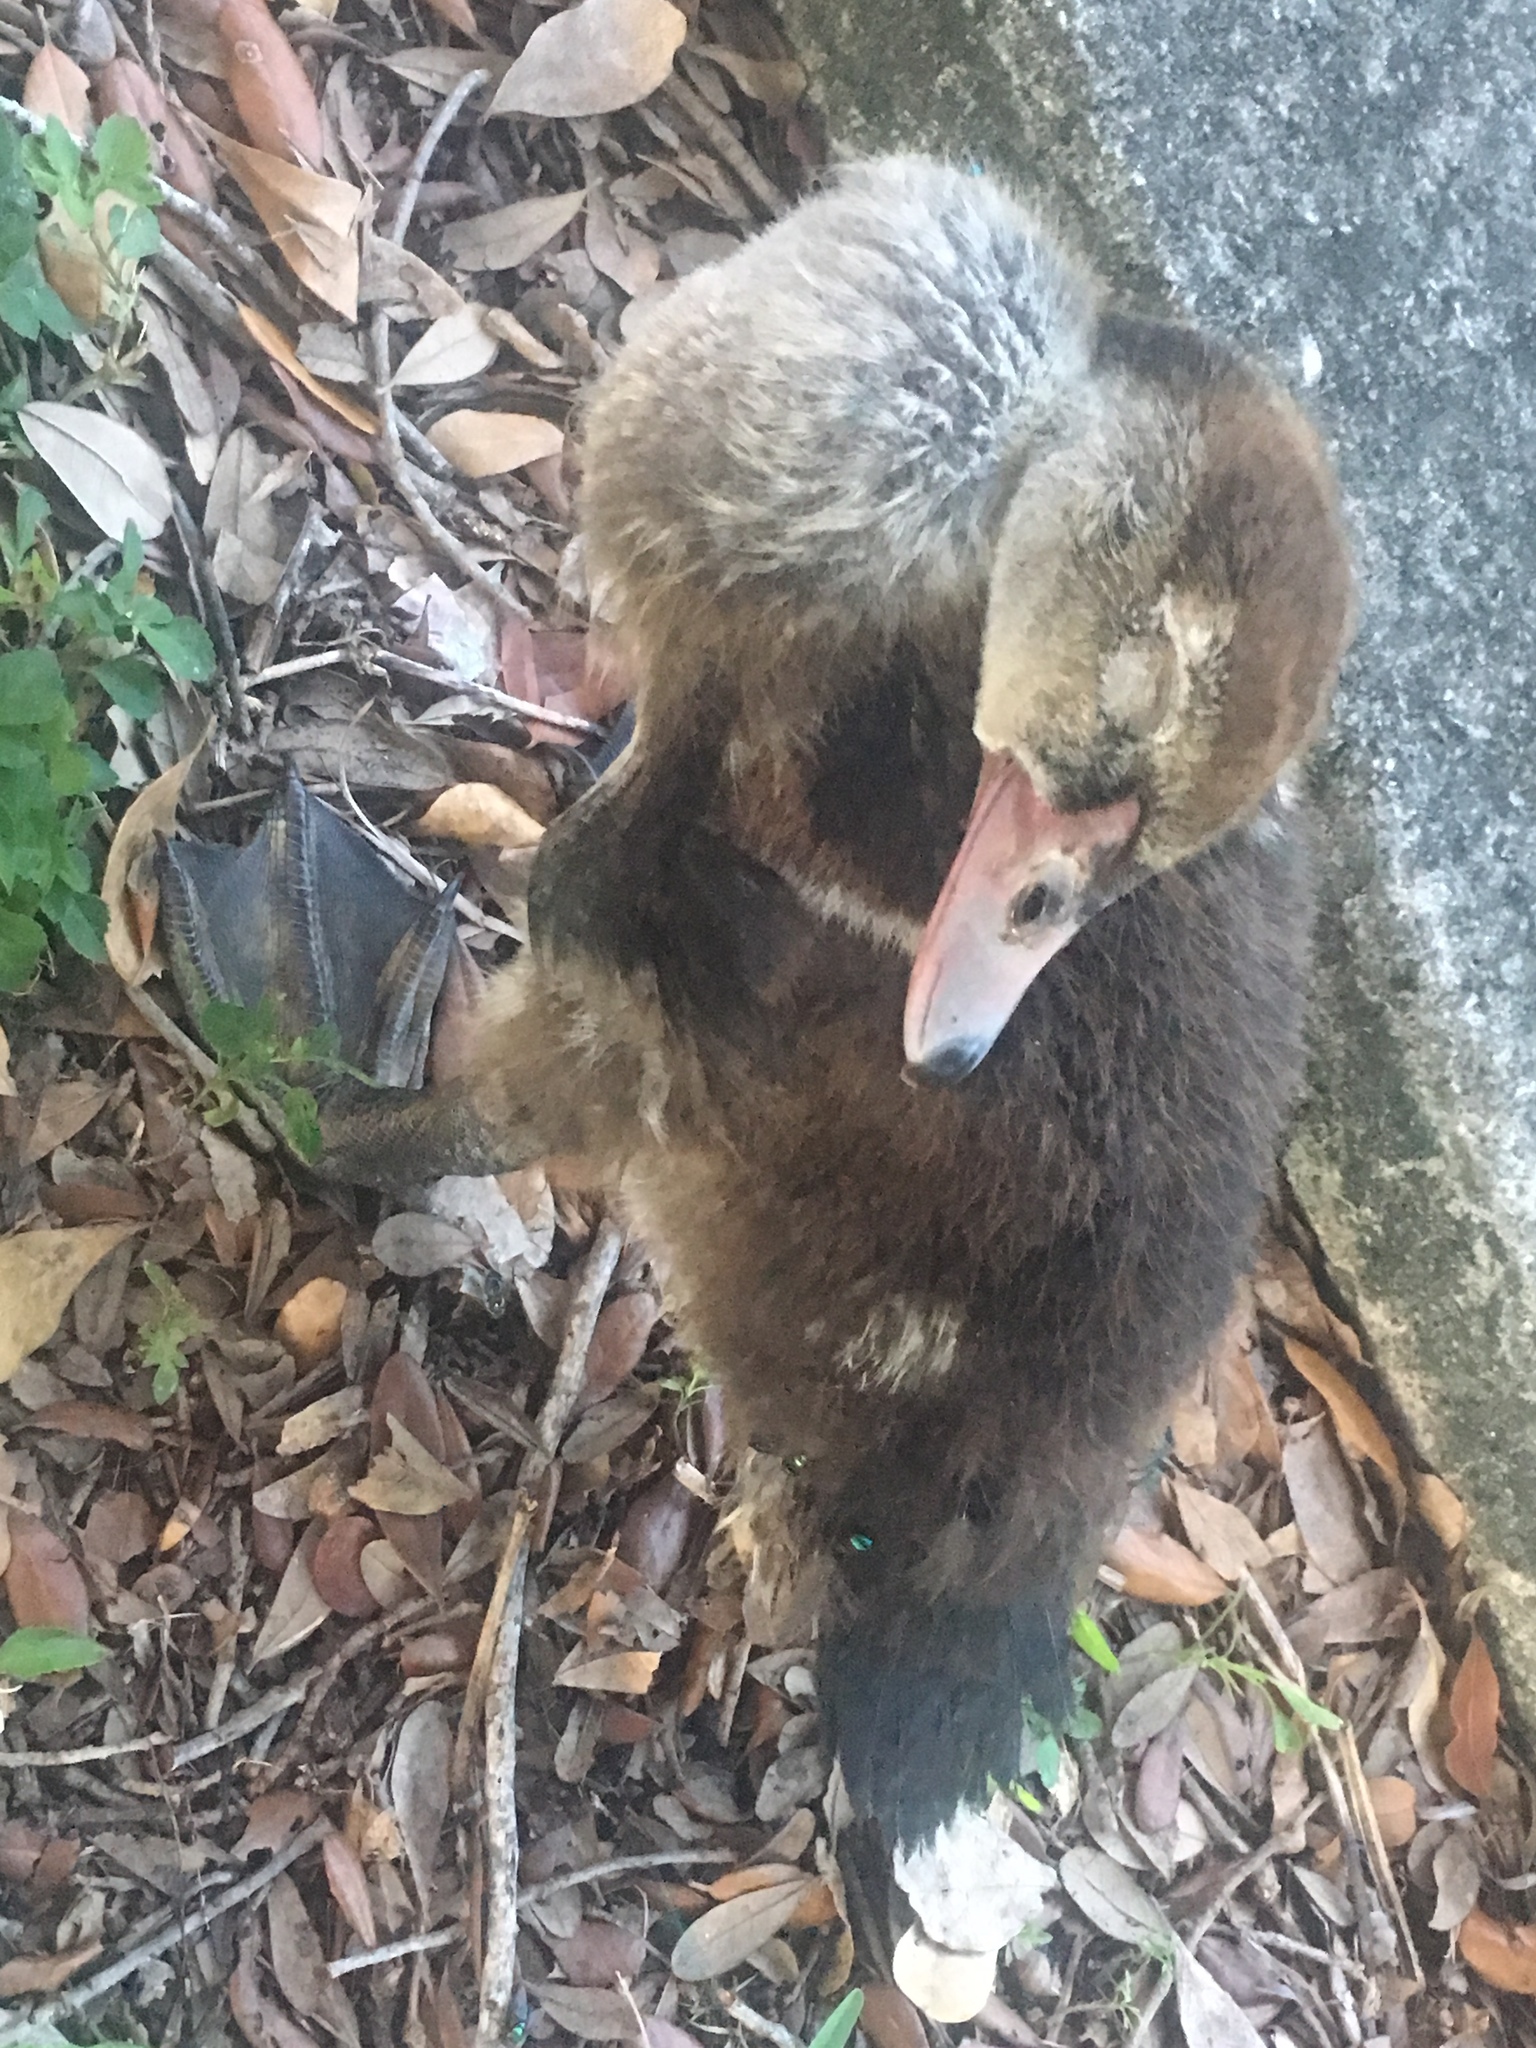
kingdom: Animalia
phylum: Chordata
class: Aves
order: Anseriformes
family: Anatidae
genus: Cairina
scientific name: Cairina moschata
